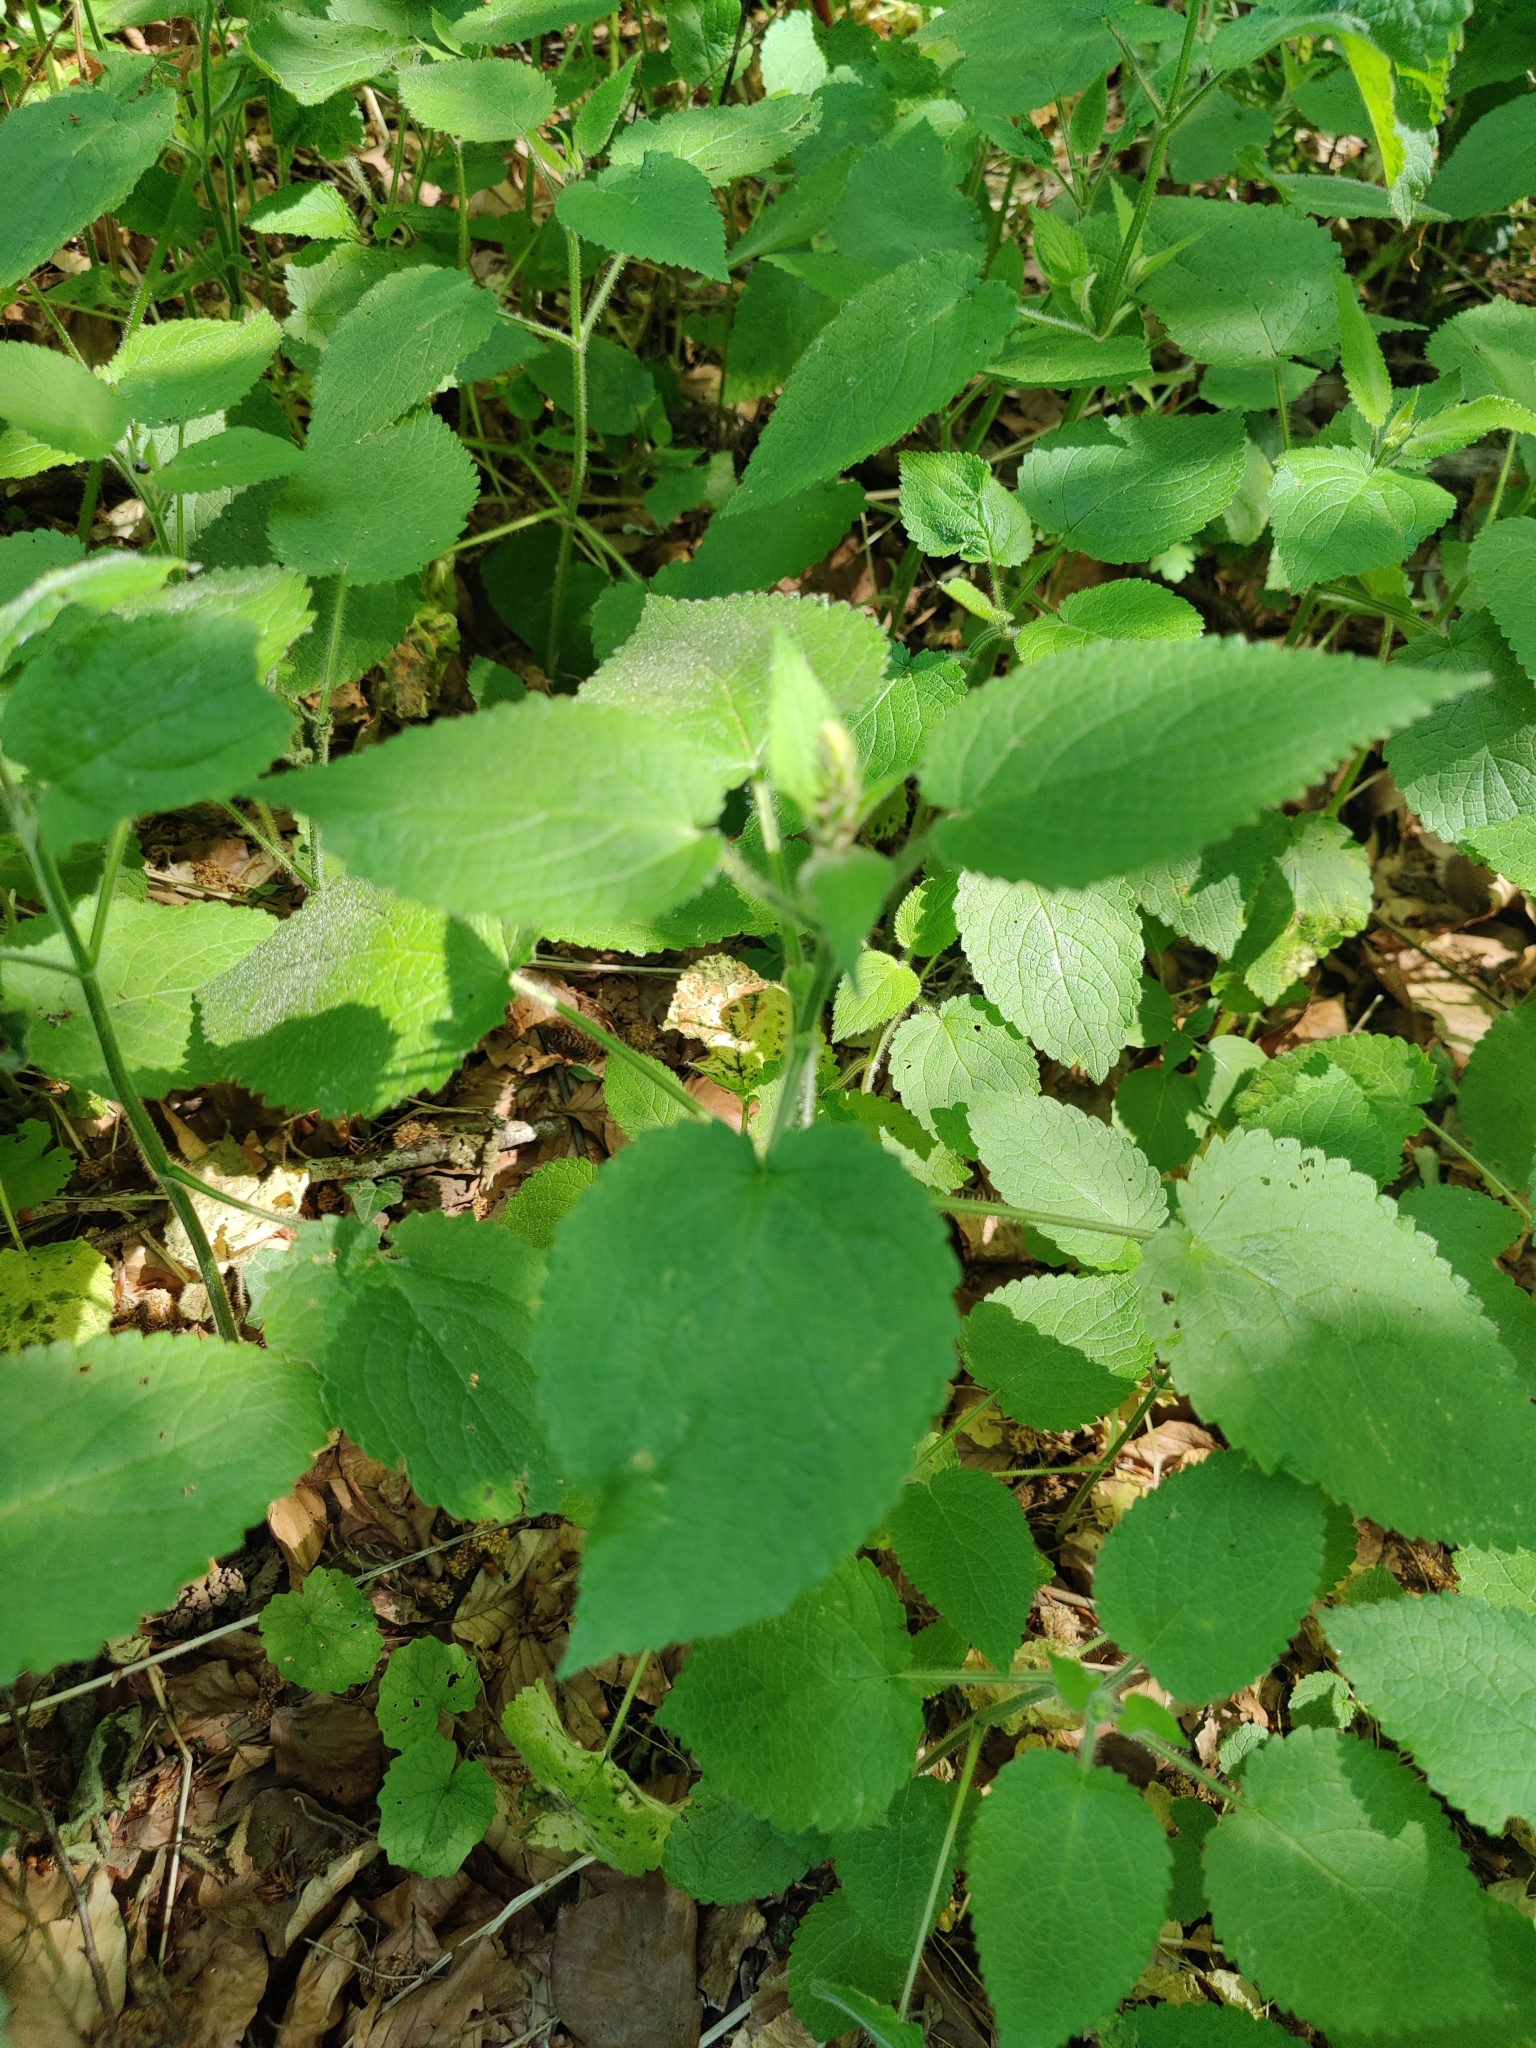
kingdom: Plantae
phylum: Tracheophyta
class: Magnoliopsida
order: Lamiales
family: Lamiaceae
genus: Stachys
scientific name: Stachys sylvatica
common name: Hedge woundwort
